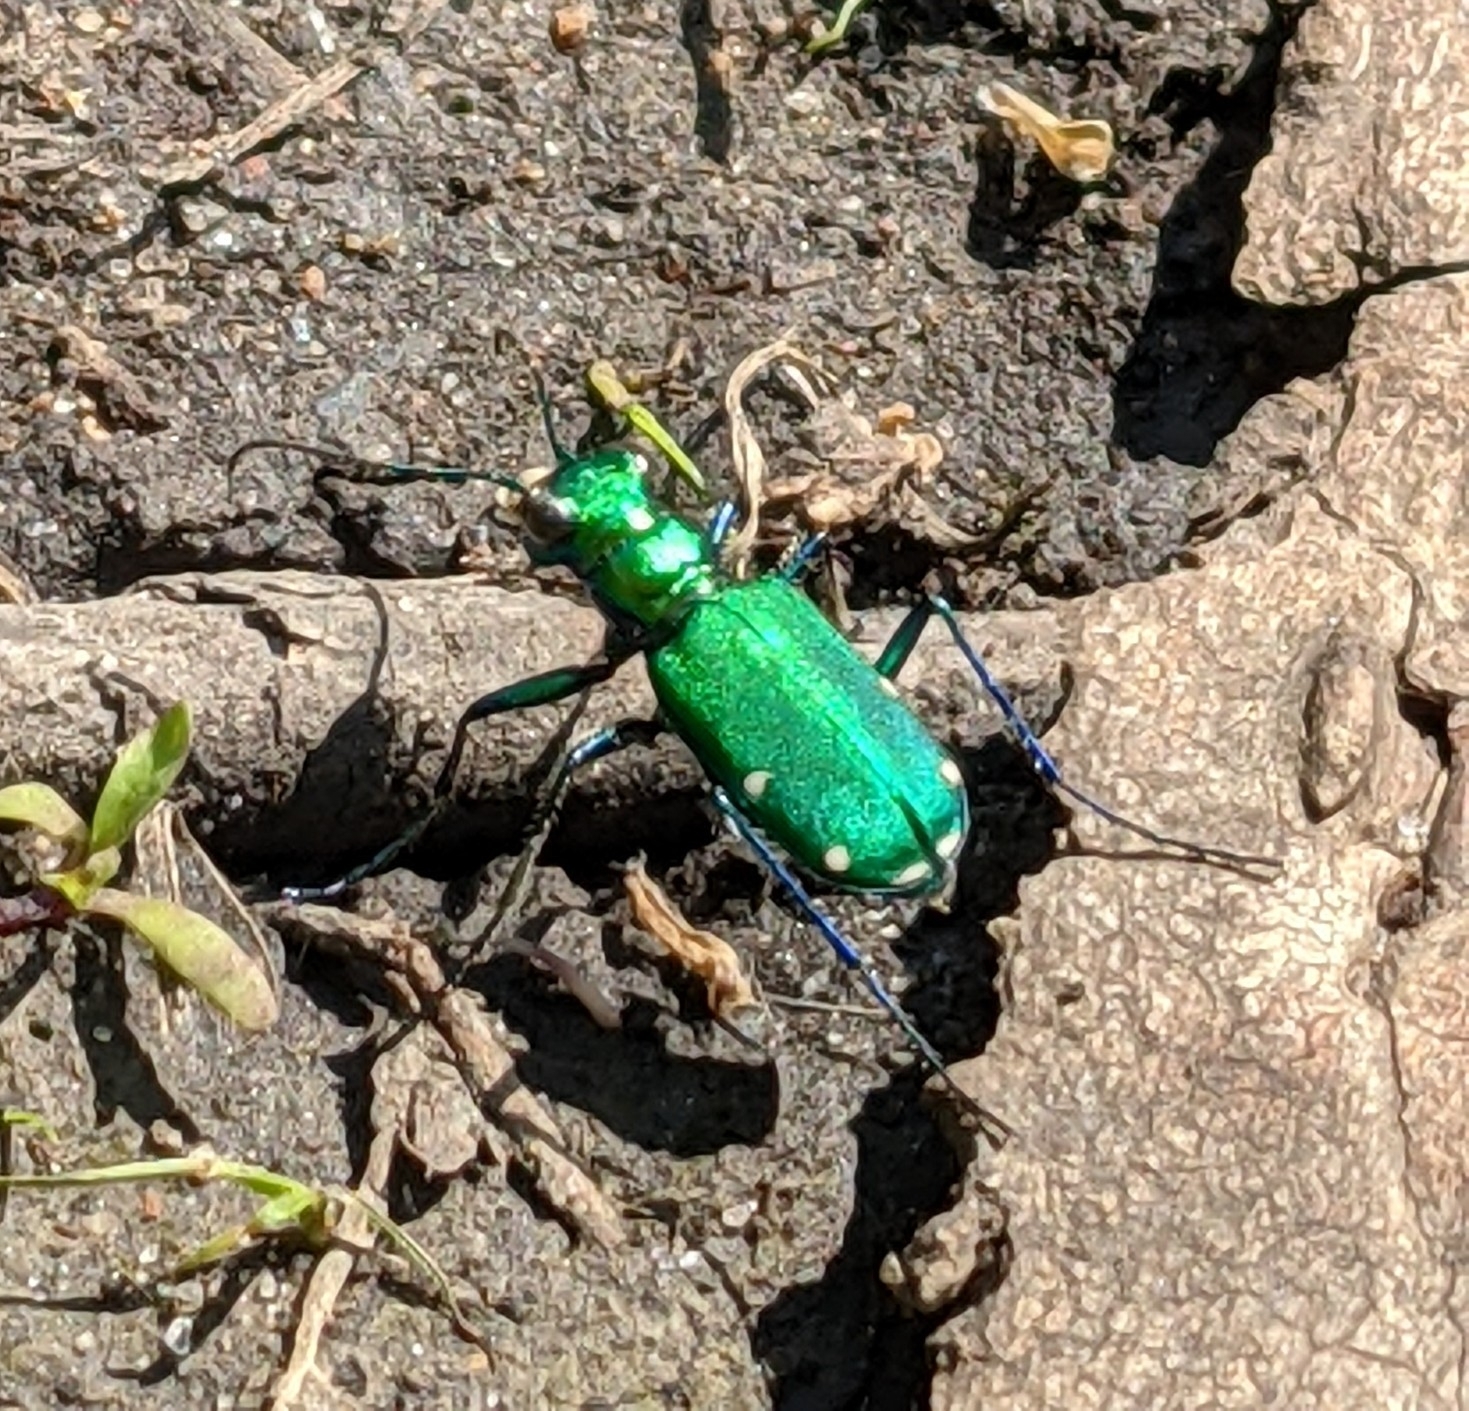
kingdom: Animalia
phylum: Arthropoda
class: Insecta
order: Coleoptera
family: Carabidae
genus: Cicindela
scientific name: Cicindela sexguttata
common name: Six-spotted tiger beetle
